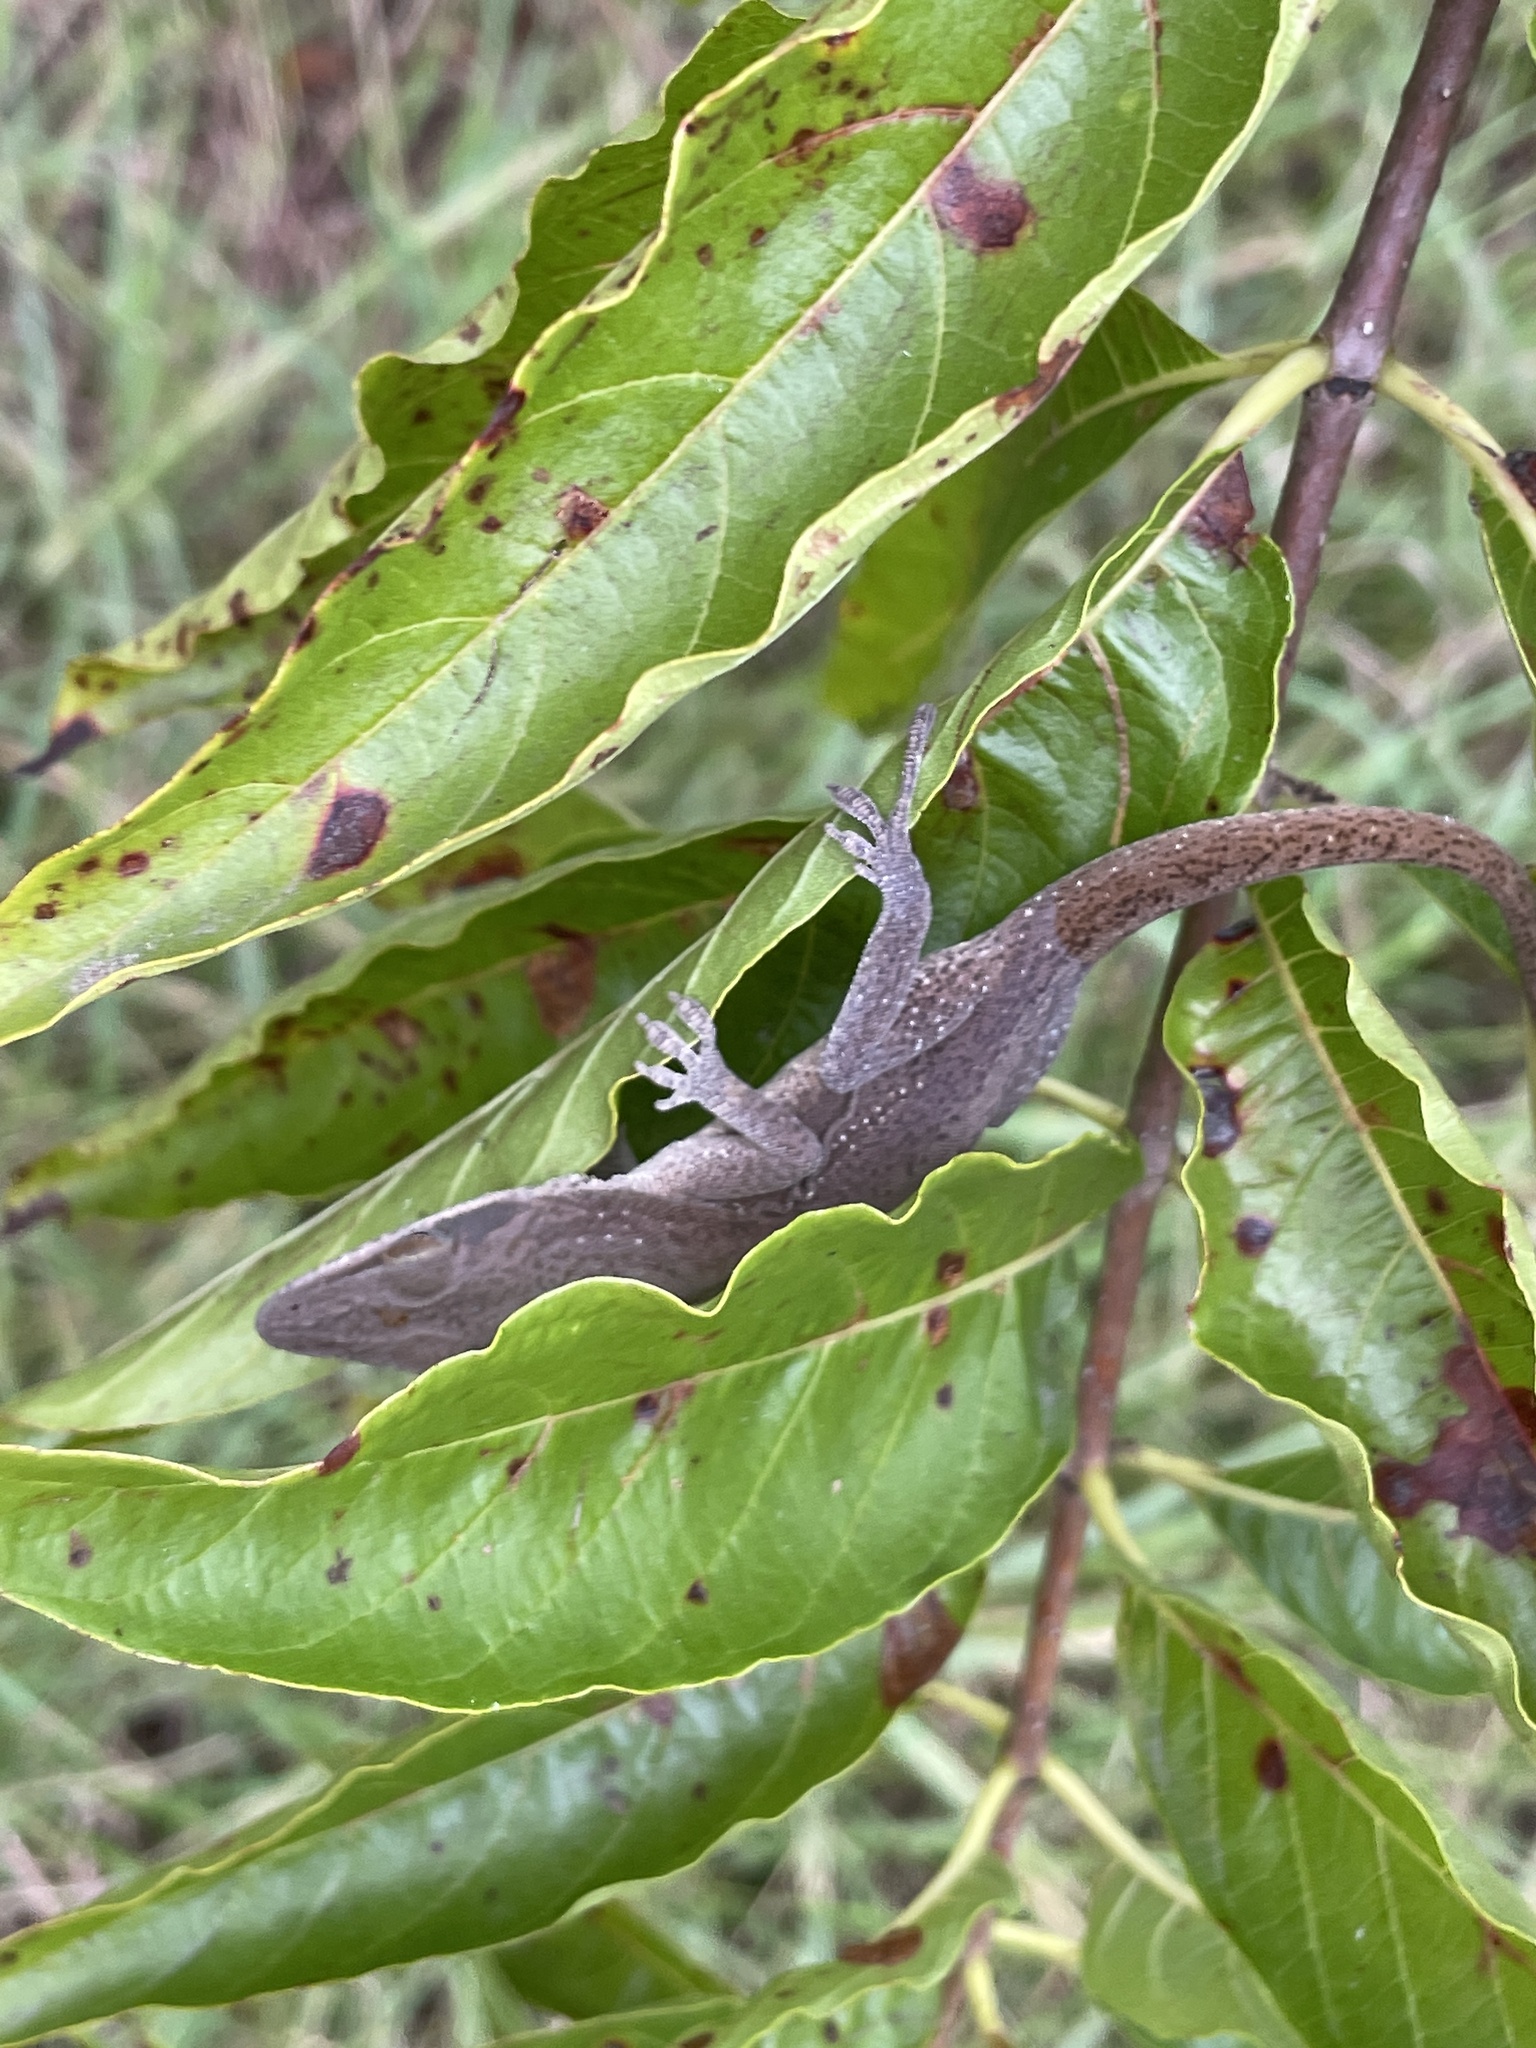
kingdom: Animalia
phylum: Chordata
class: Squamata
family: Dactyloidae
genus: Anolis
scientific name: Anolis carolinensis
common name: Green anole
